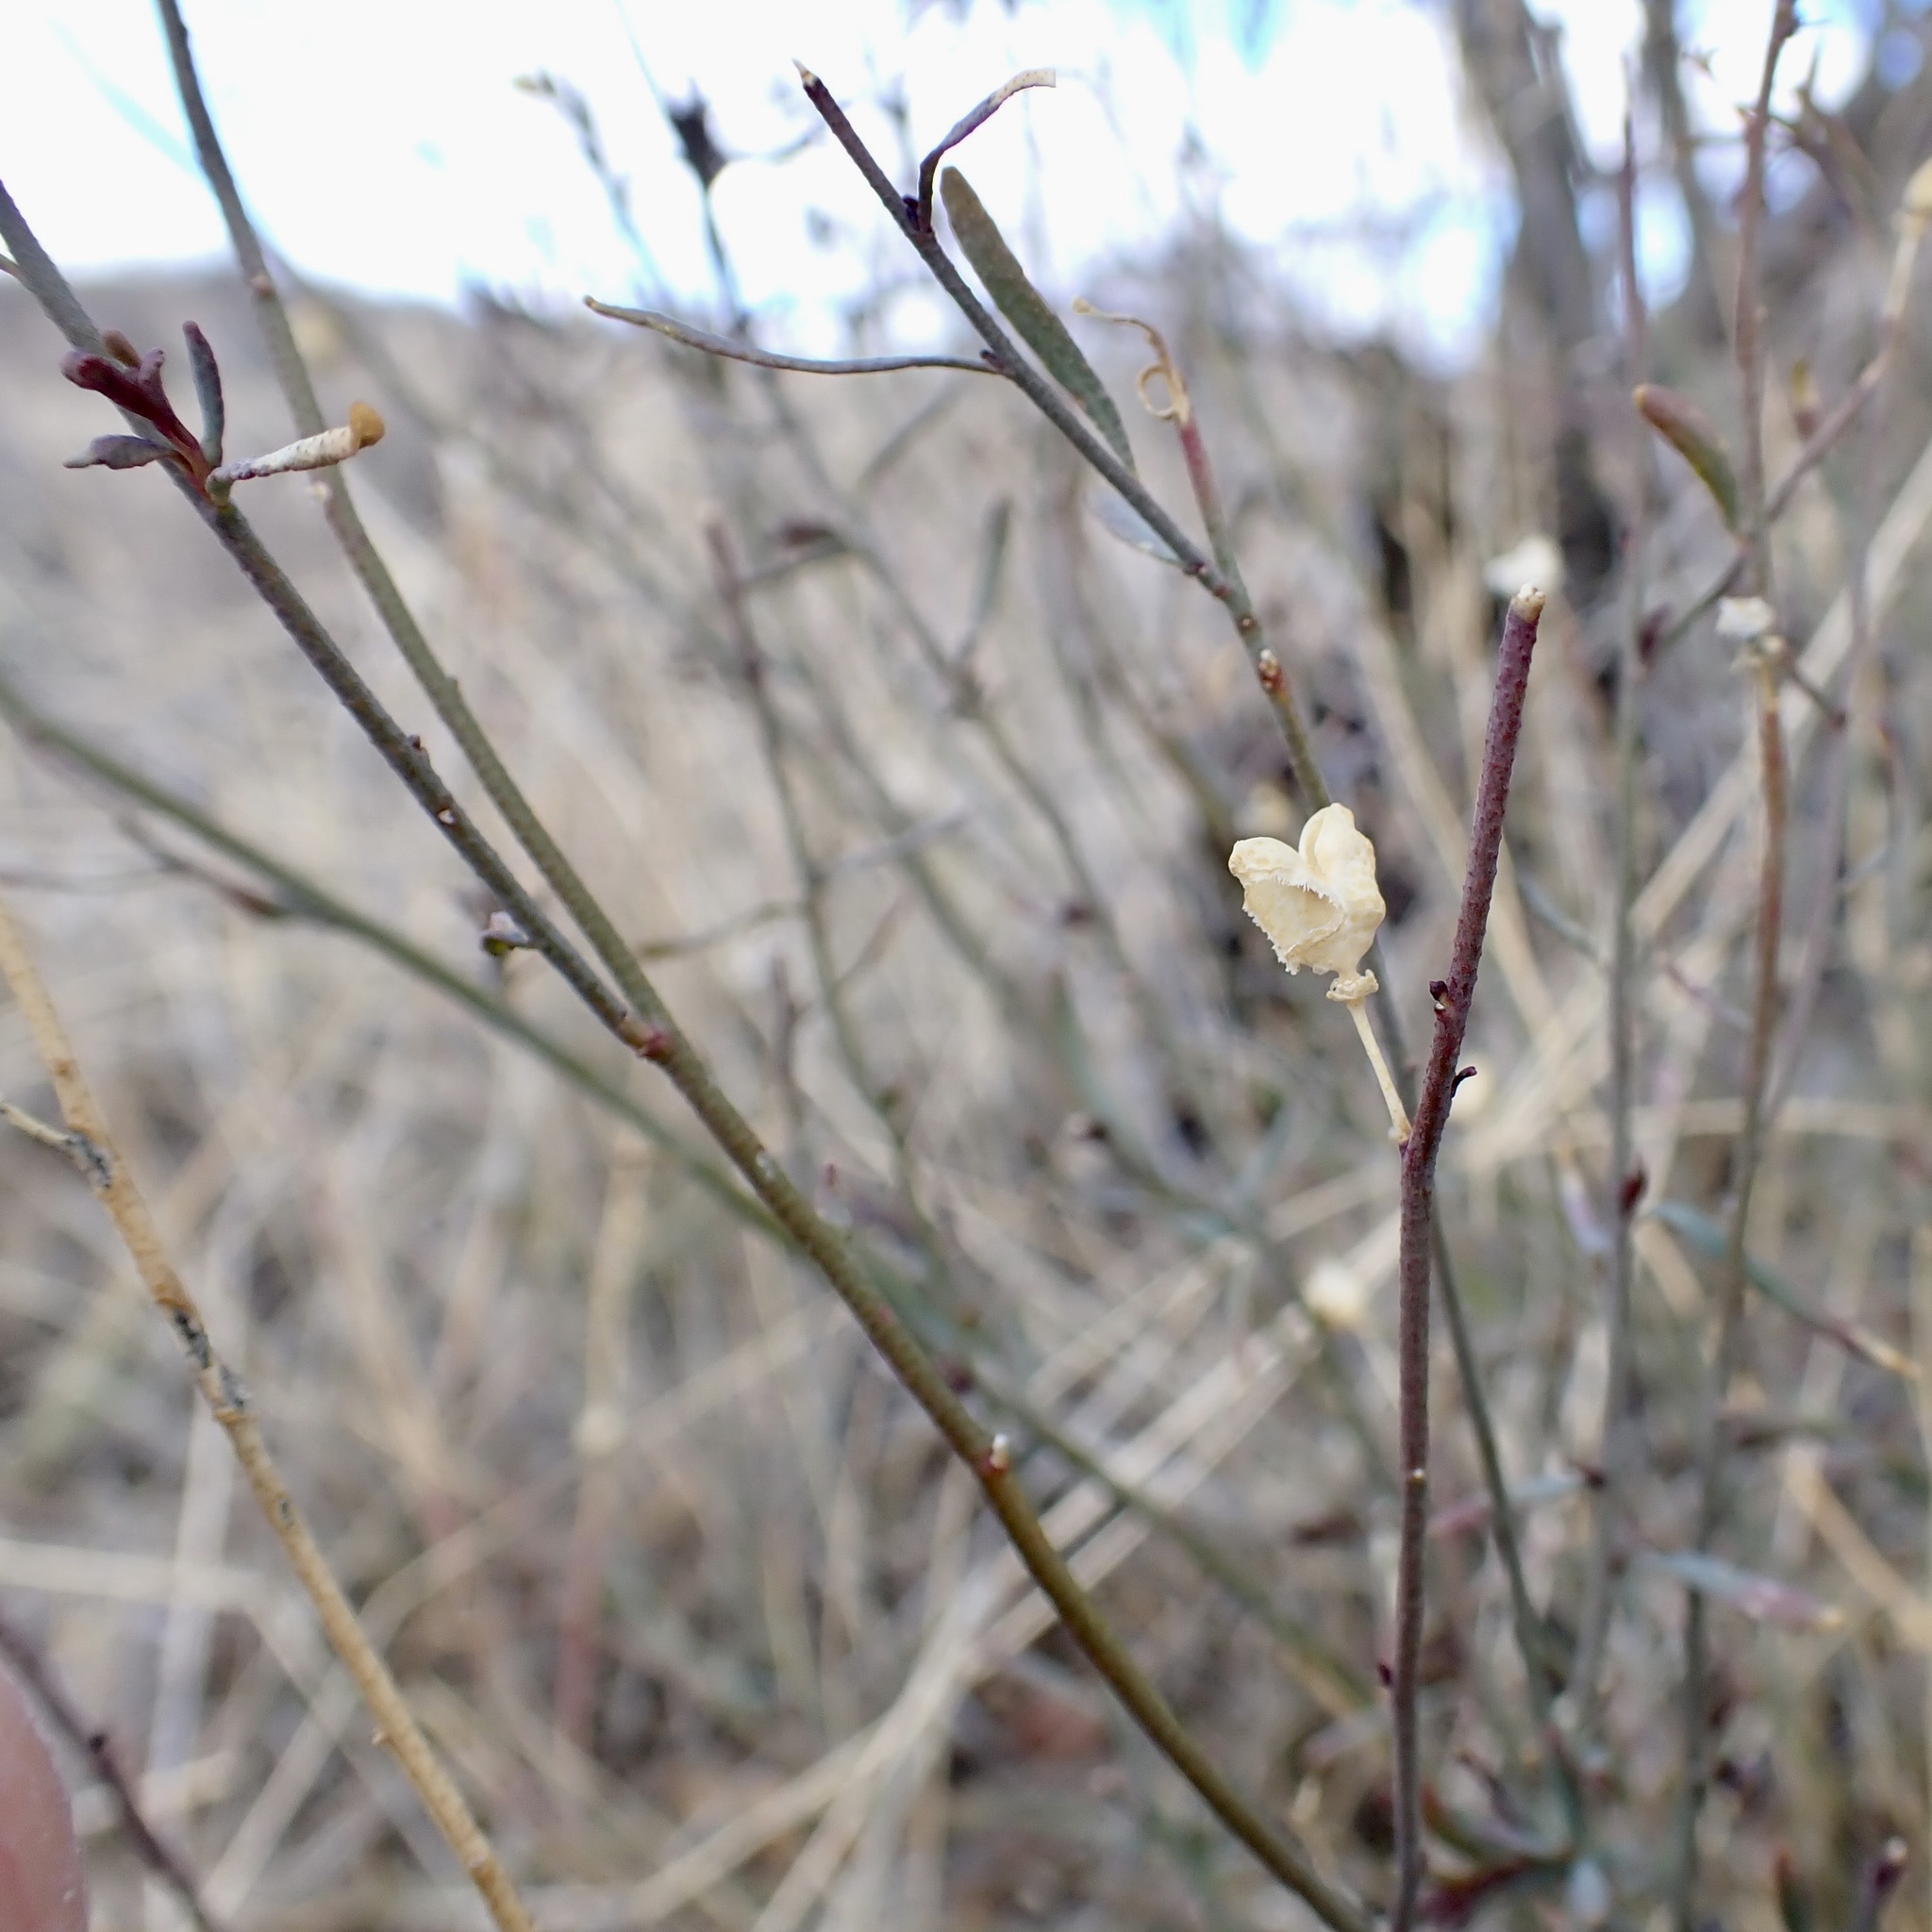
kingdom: Plantae
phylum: Tracheophyta
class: Magnoliopsida
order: Sapindales
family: Rutaceae
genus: Thamnosma
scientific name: Thamnosma texana
